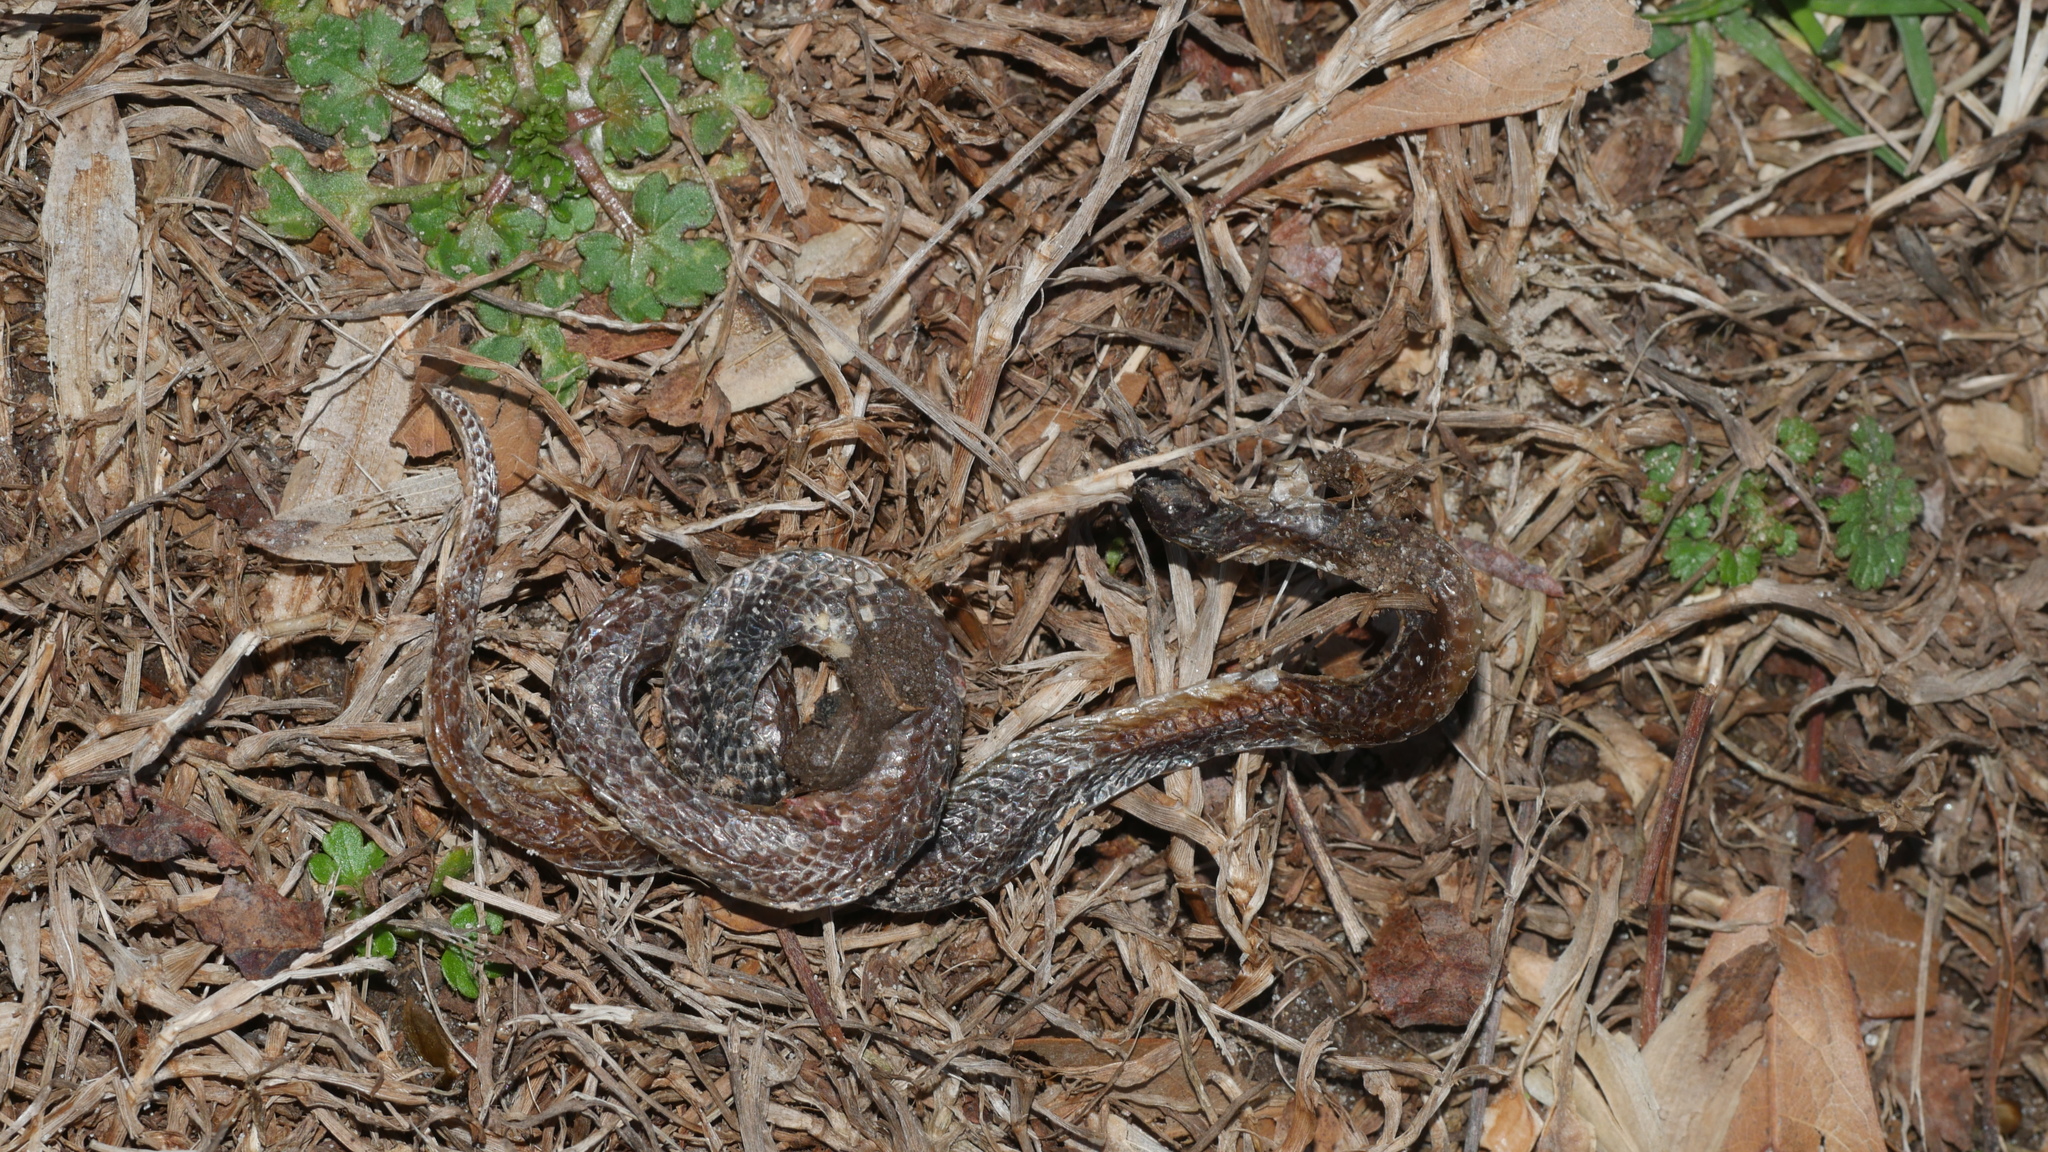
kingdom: Animalia
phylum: Chordata
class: Squamata
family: Colubridae
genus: Carphophis
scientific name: Carphophis amoenus
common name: Eastern worm snake
